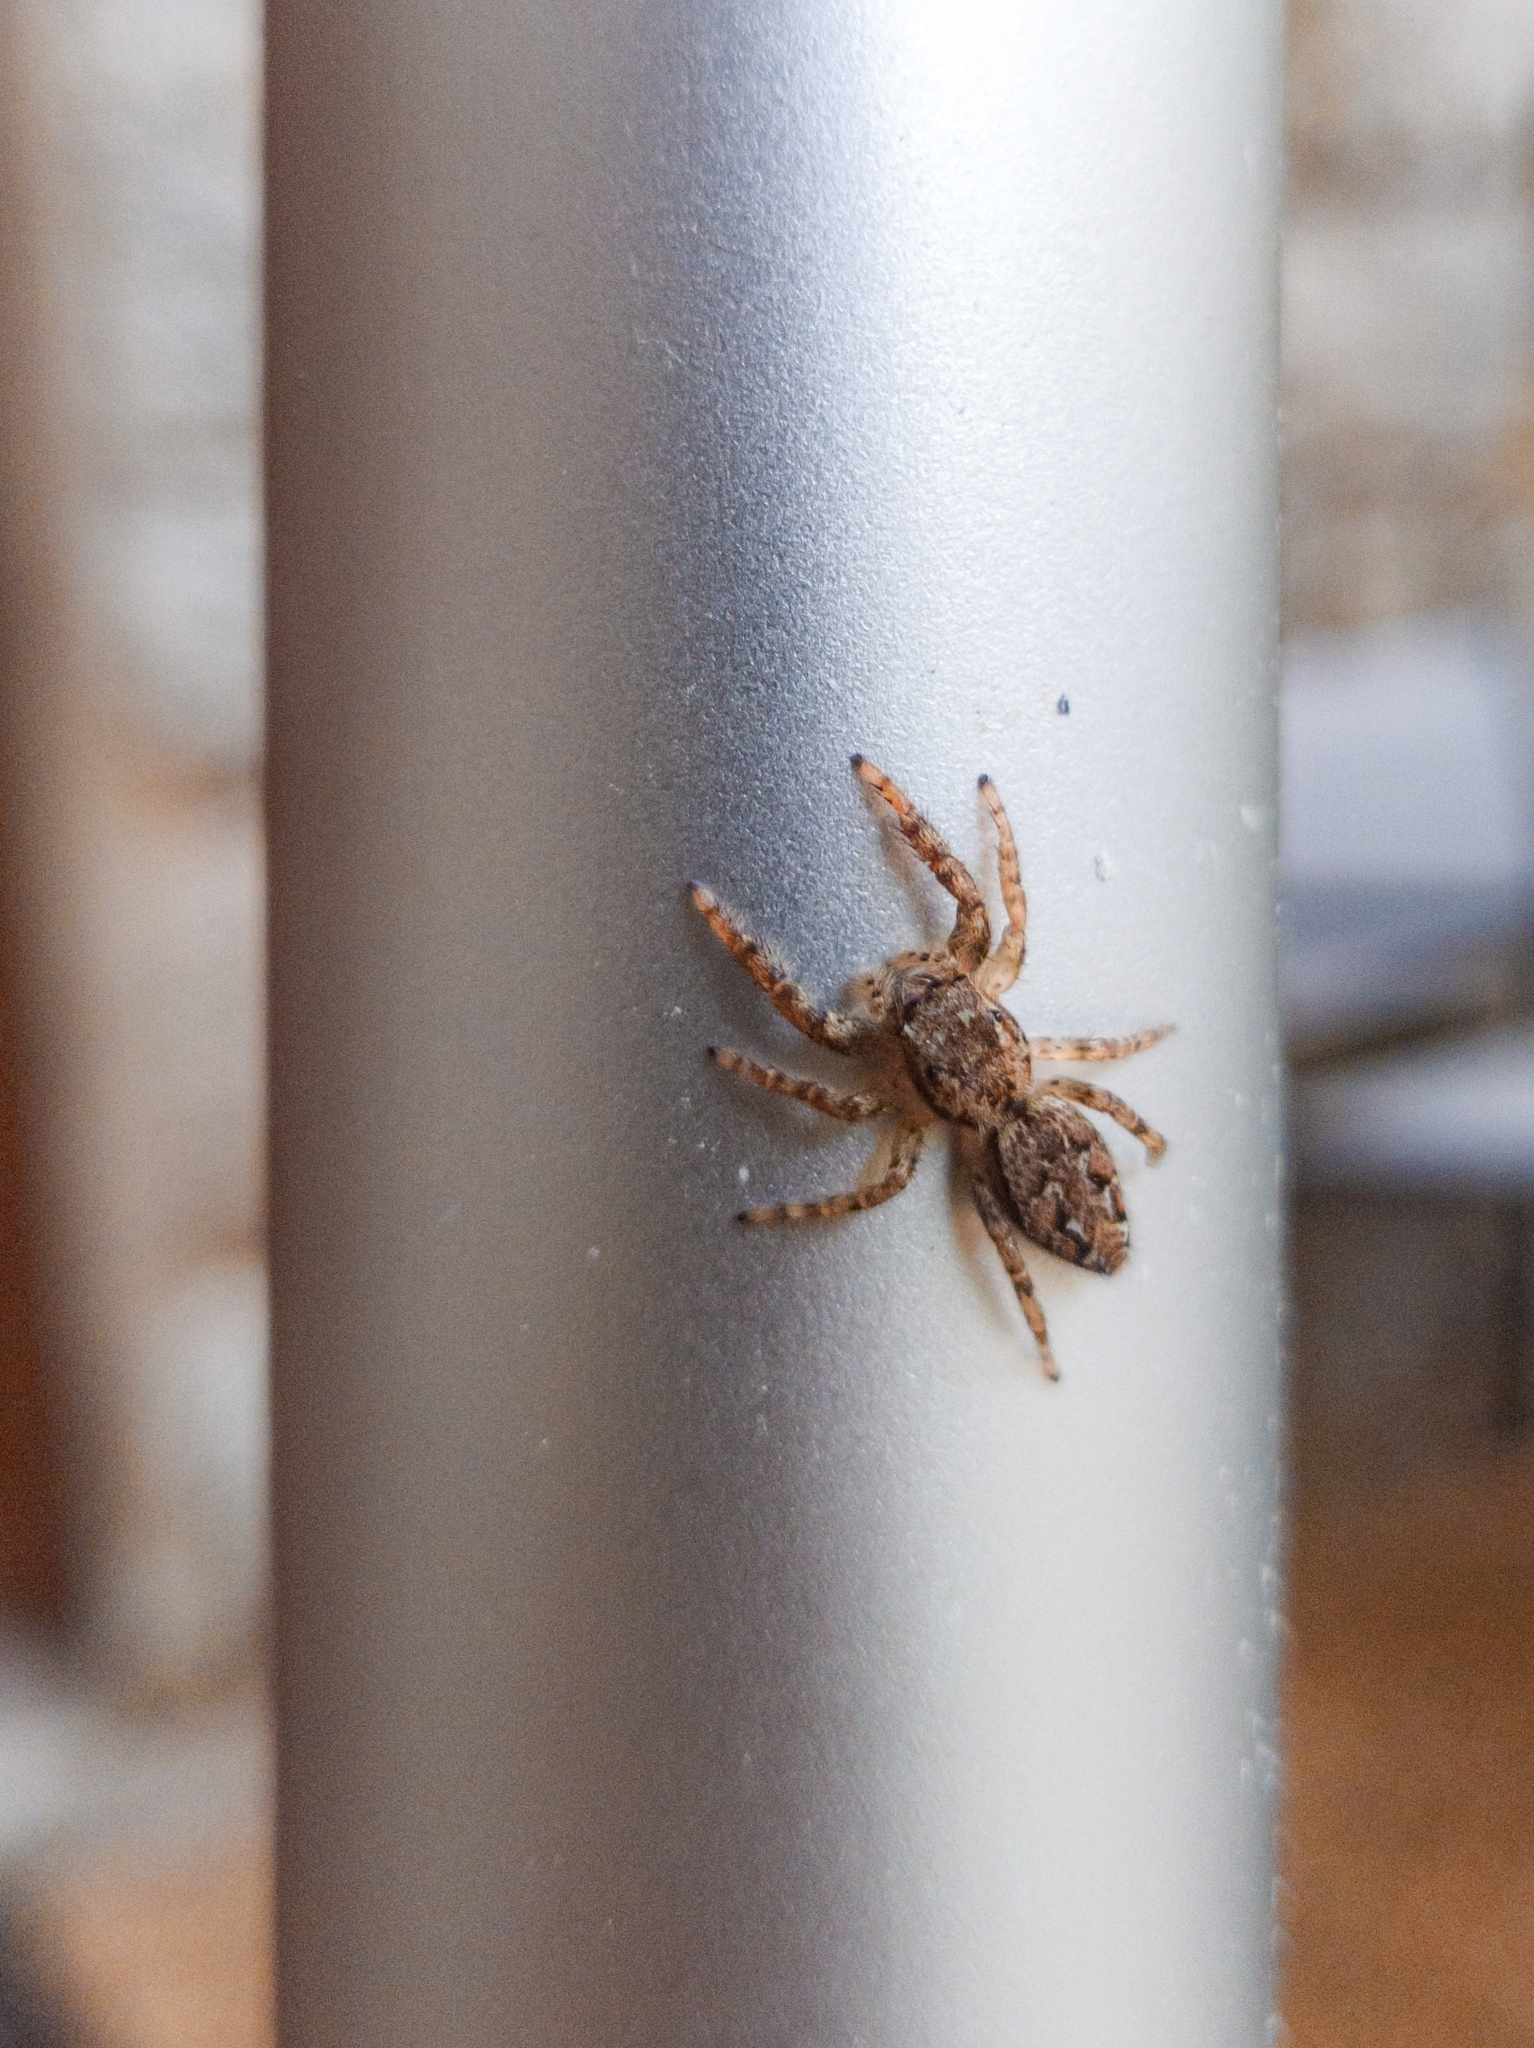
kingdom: Animalia
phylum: Arthropoda
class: Arachnida
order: Araneae
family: Salticidae
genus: Marpissa
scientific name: Marpissa muscosa
